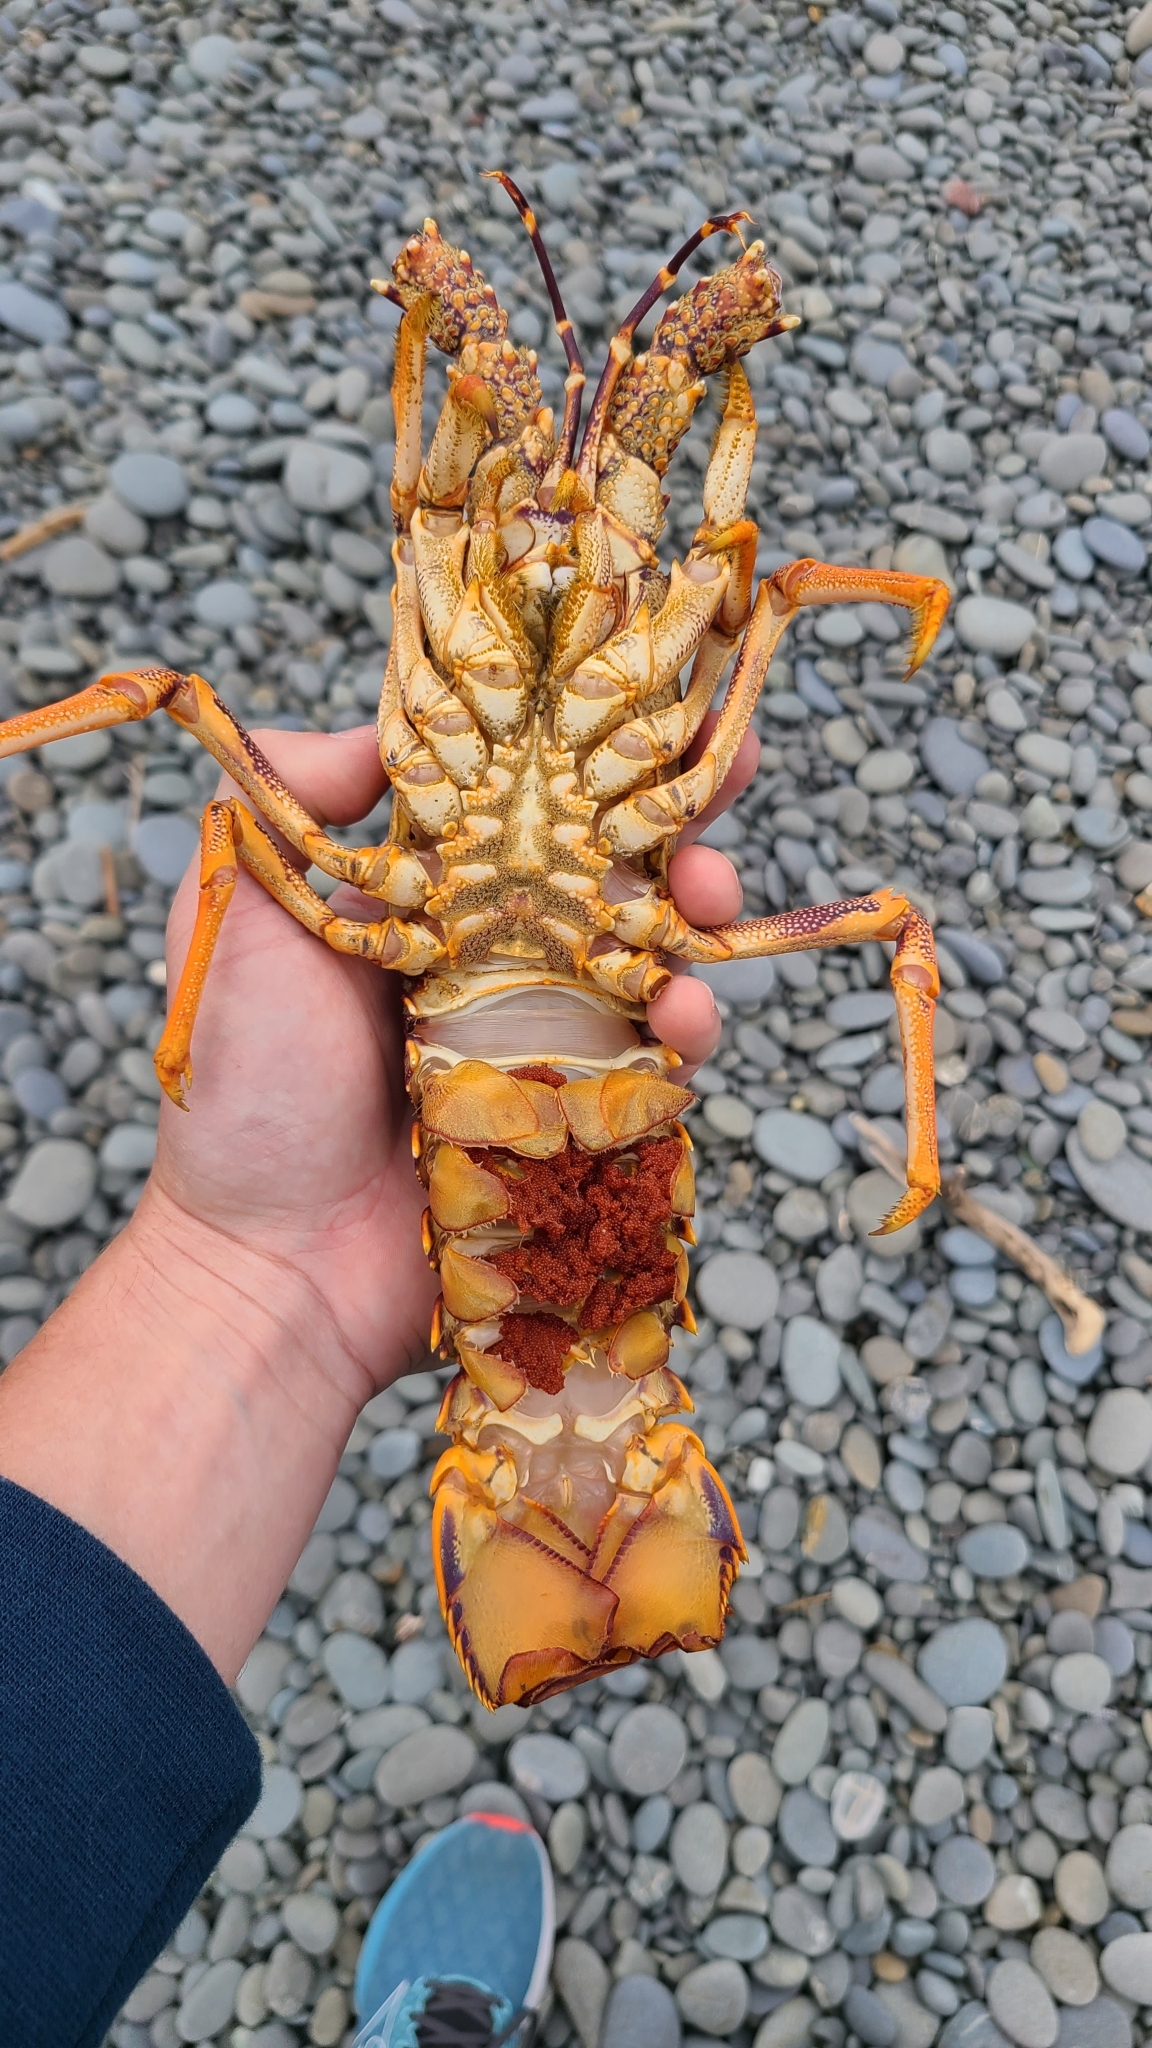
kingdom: Animalia
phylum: Arthropoda
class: Malacostraca
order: Decapoda
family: Palinuridae
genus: Jasus
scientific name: Jasus edwardsii
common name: Red rock lobster
